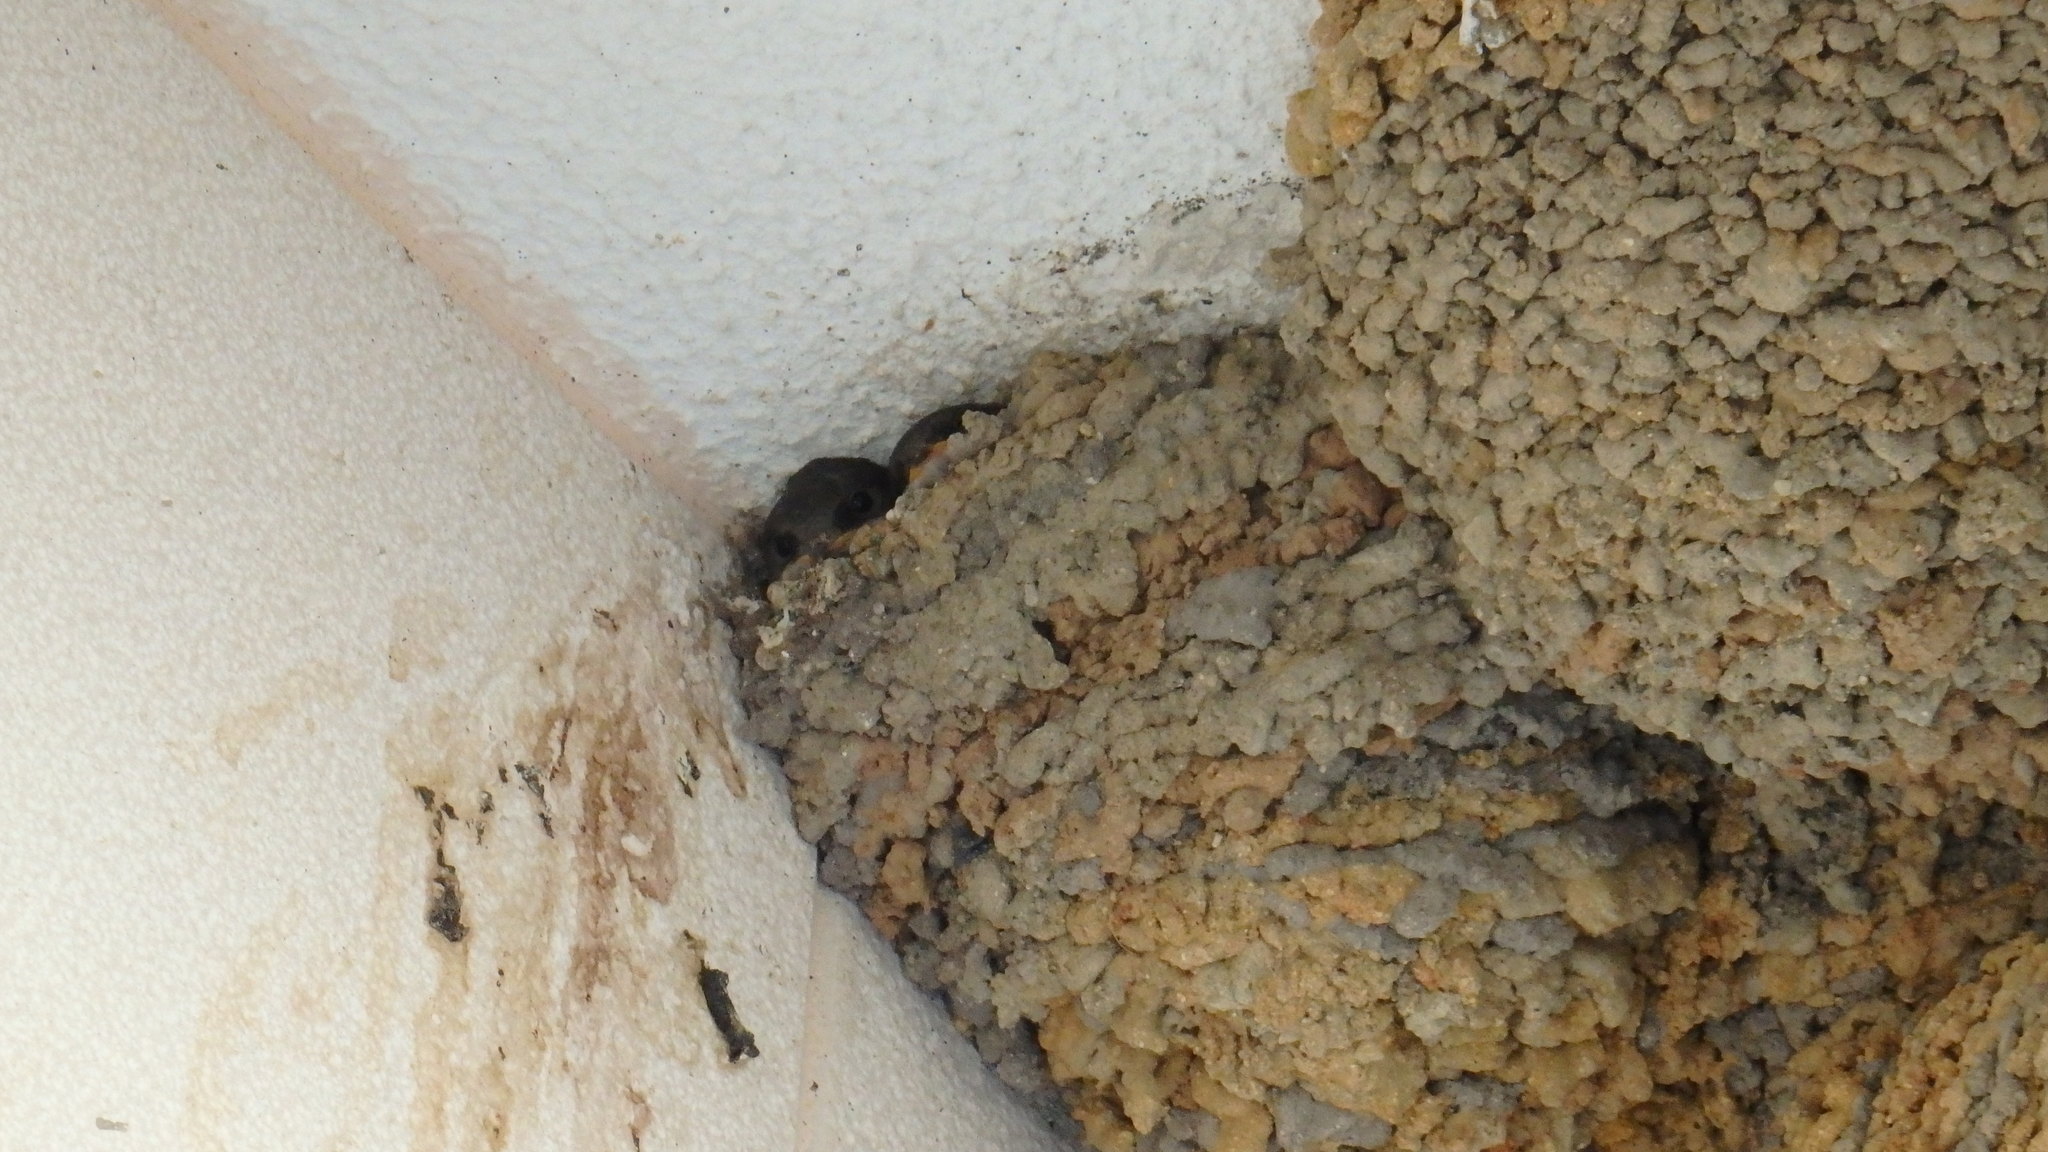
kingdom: Animalia
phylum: Chordata
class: Aves
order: Passeriformes
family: Hirundinidae
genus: Delichon
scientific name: Delichon urbicum
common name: Common house martin
